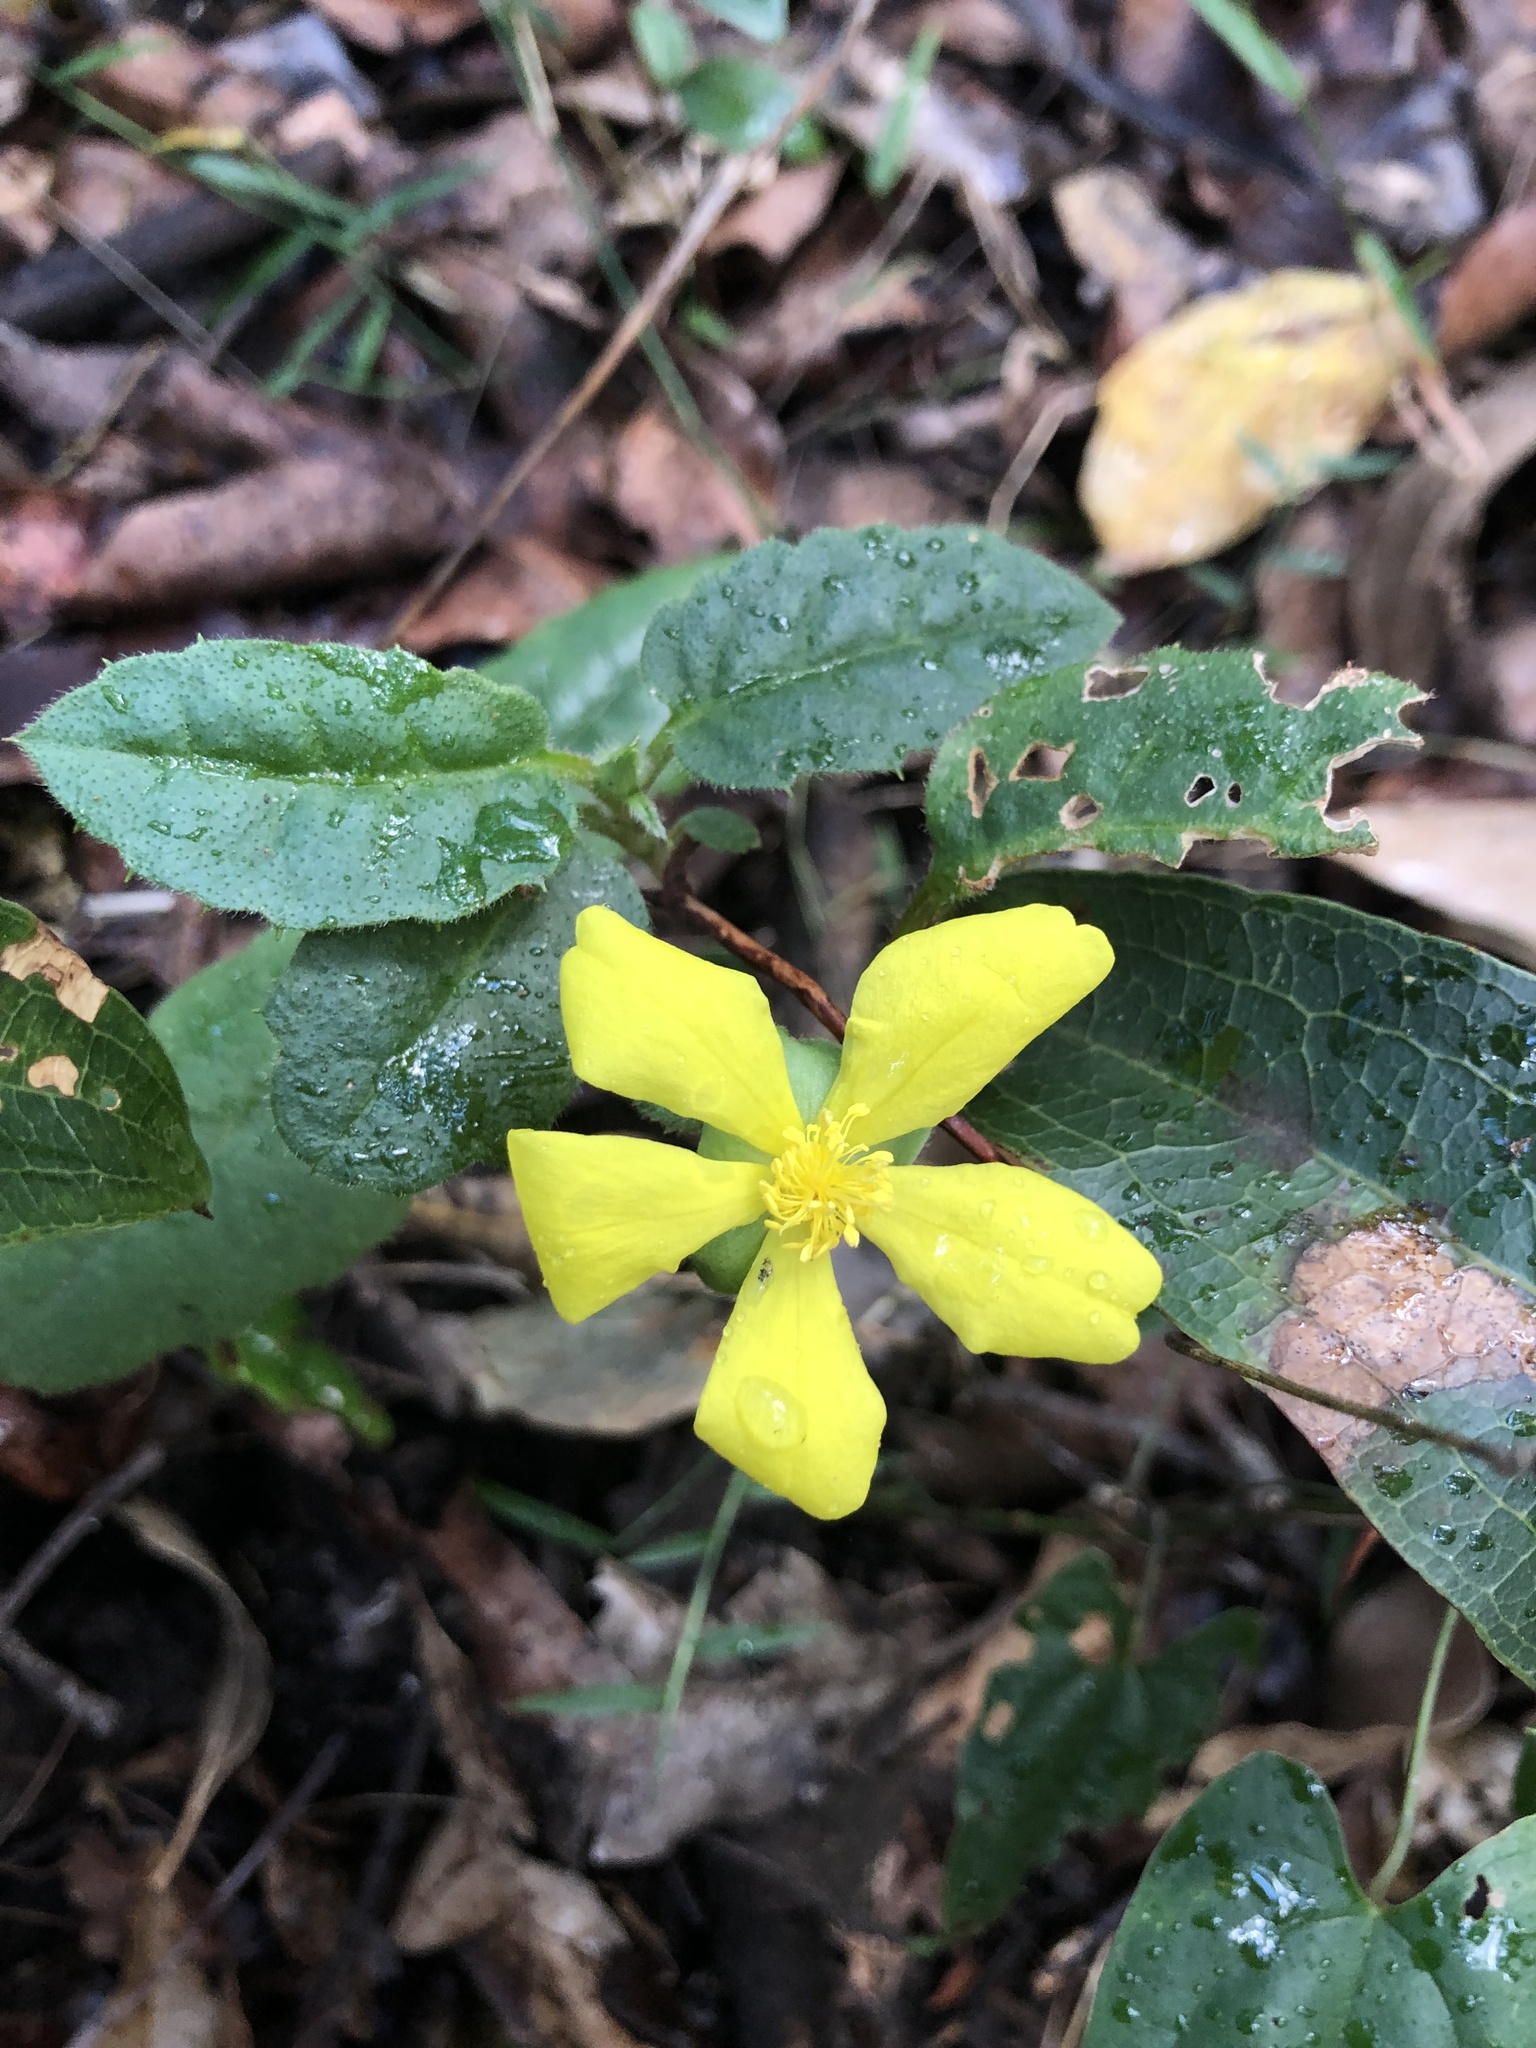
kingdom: Plantae
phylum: Tracheophyta
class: Magnoliopsida
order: Dilleniales
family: Dilleniaceae
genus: Hibbertia
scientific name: Hibbertia dentata
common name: Trailing guinea-flower
